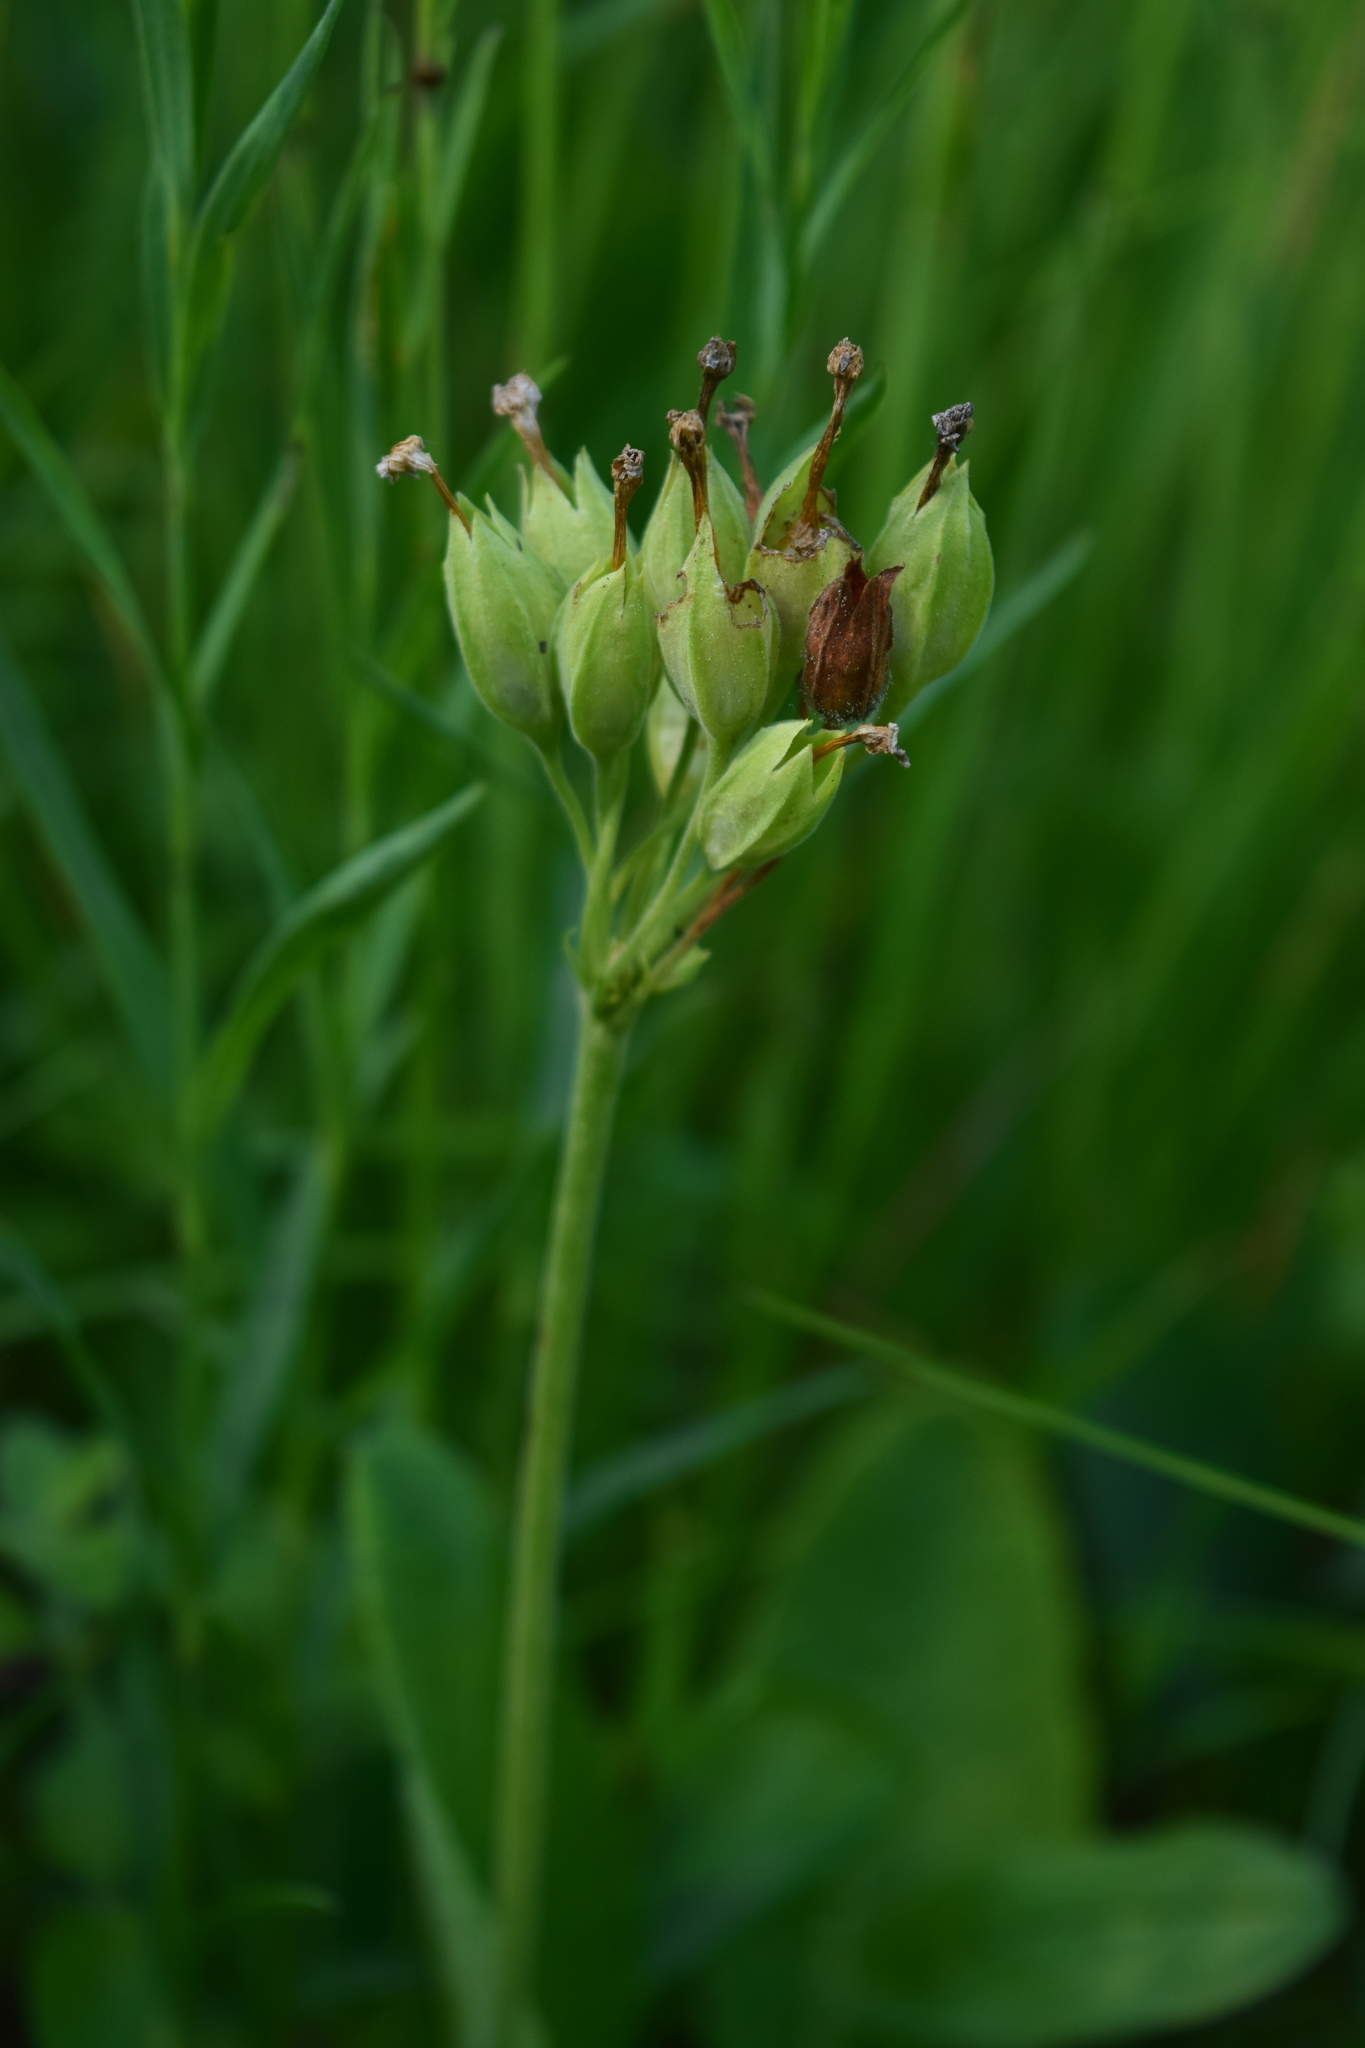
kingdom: Plantae
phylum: Tracheophyta
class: Magnoliopsida
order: Ericales
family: Primulaceae
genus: Primula
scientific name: Primula veris
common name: Cowslip
